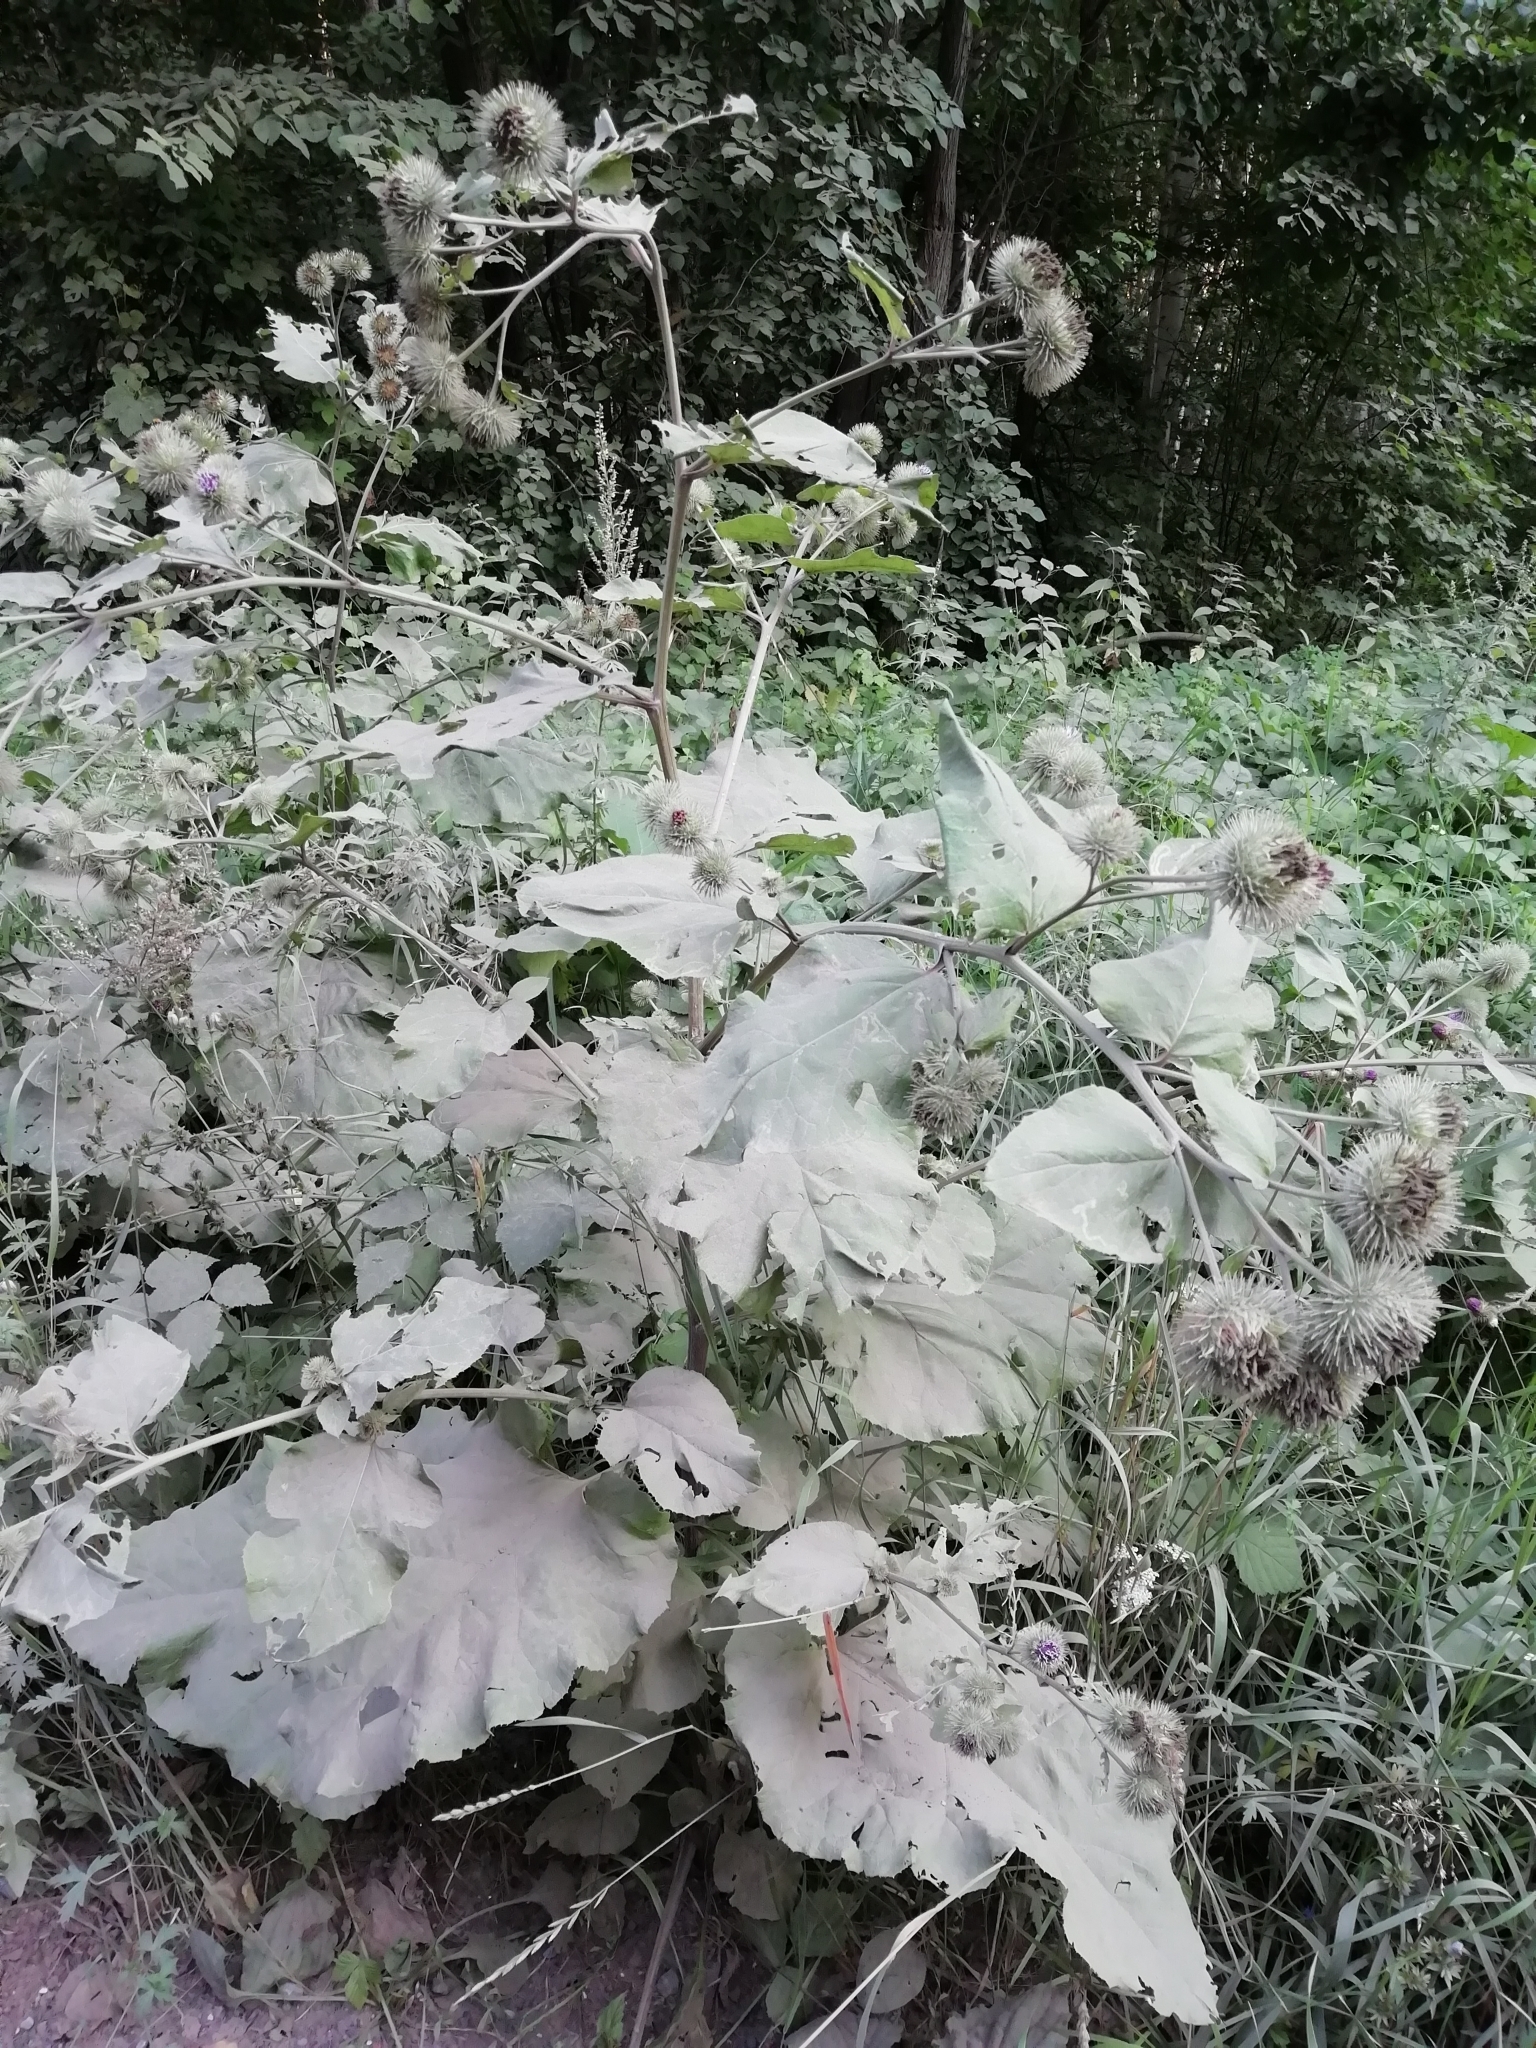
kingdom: Plantae
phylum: Tracheophyta
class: Magnoliopsida
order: Asterales
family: Asteraceae
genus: Arctium
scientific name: Arctium nemorosum
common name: Wood burdock
